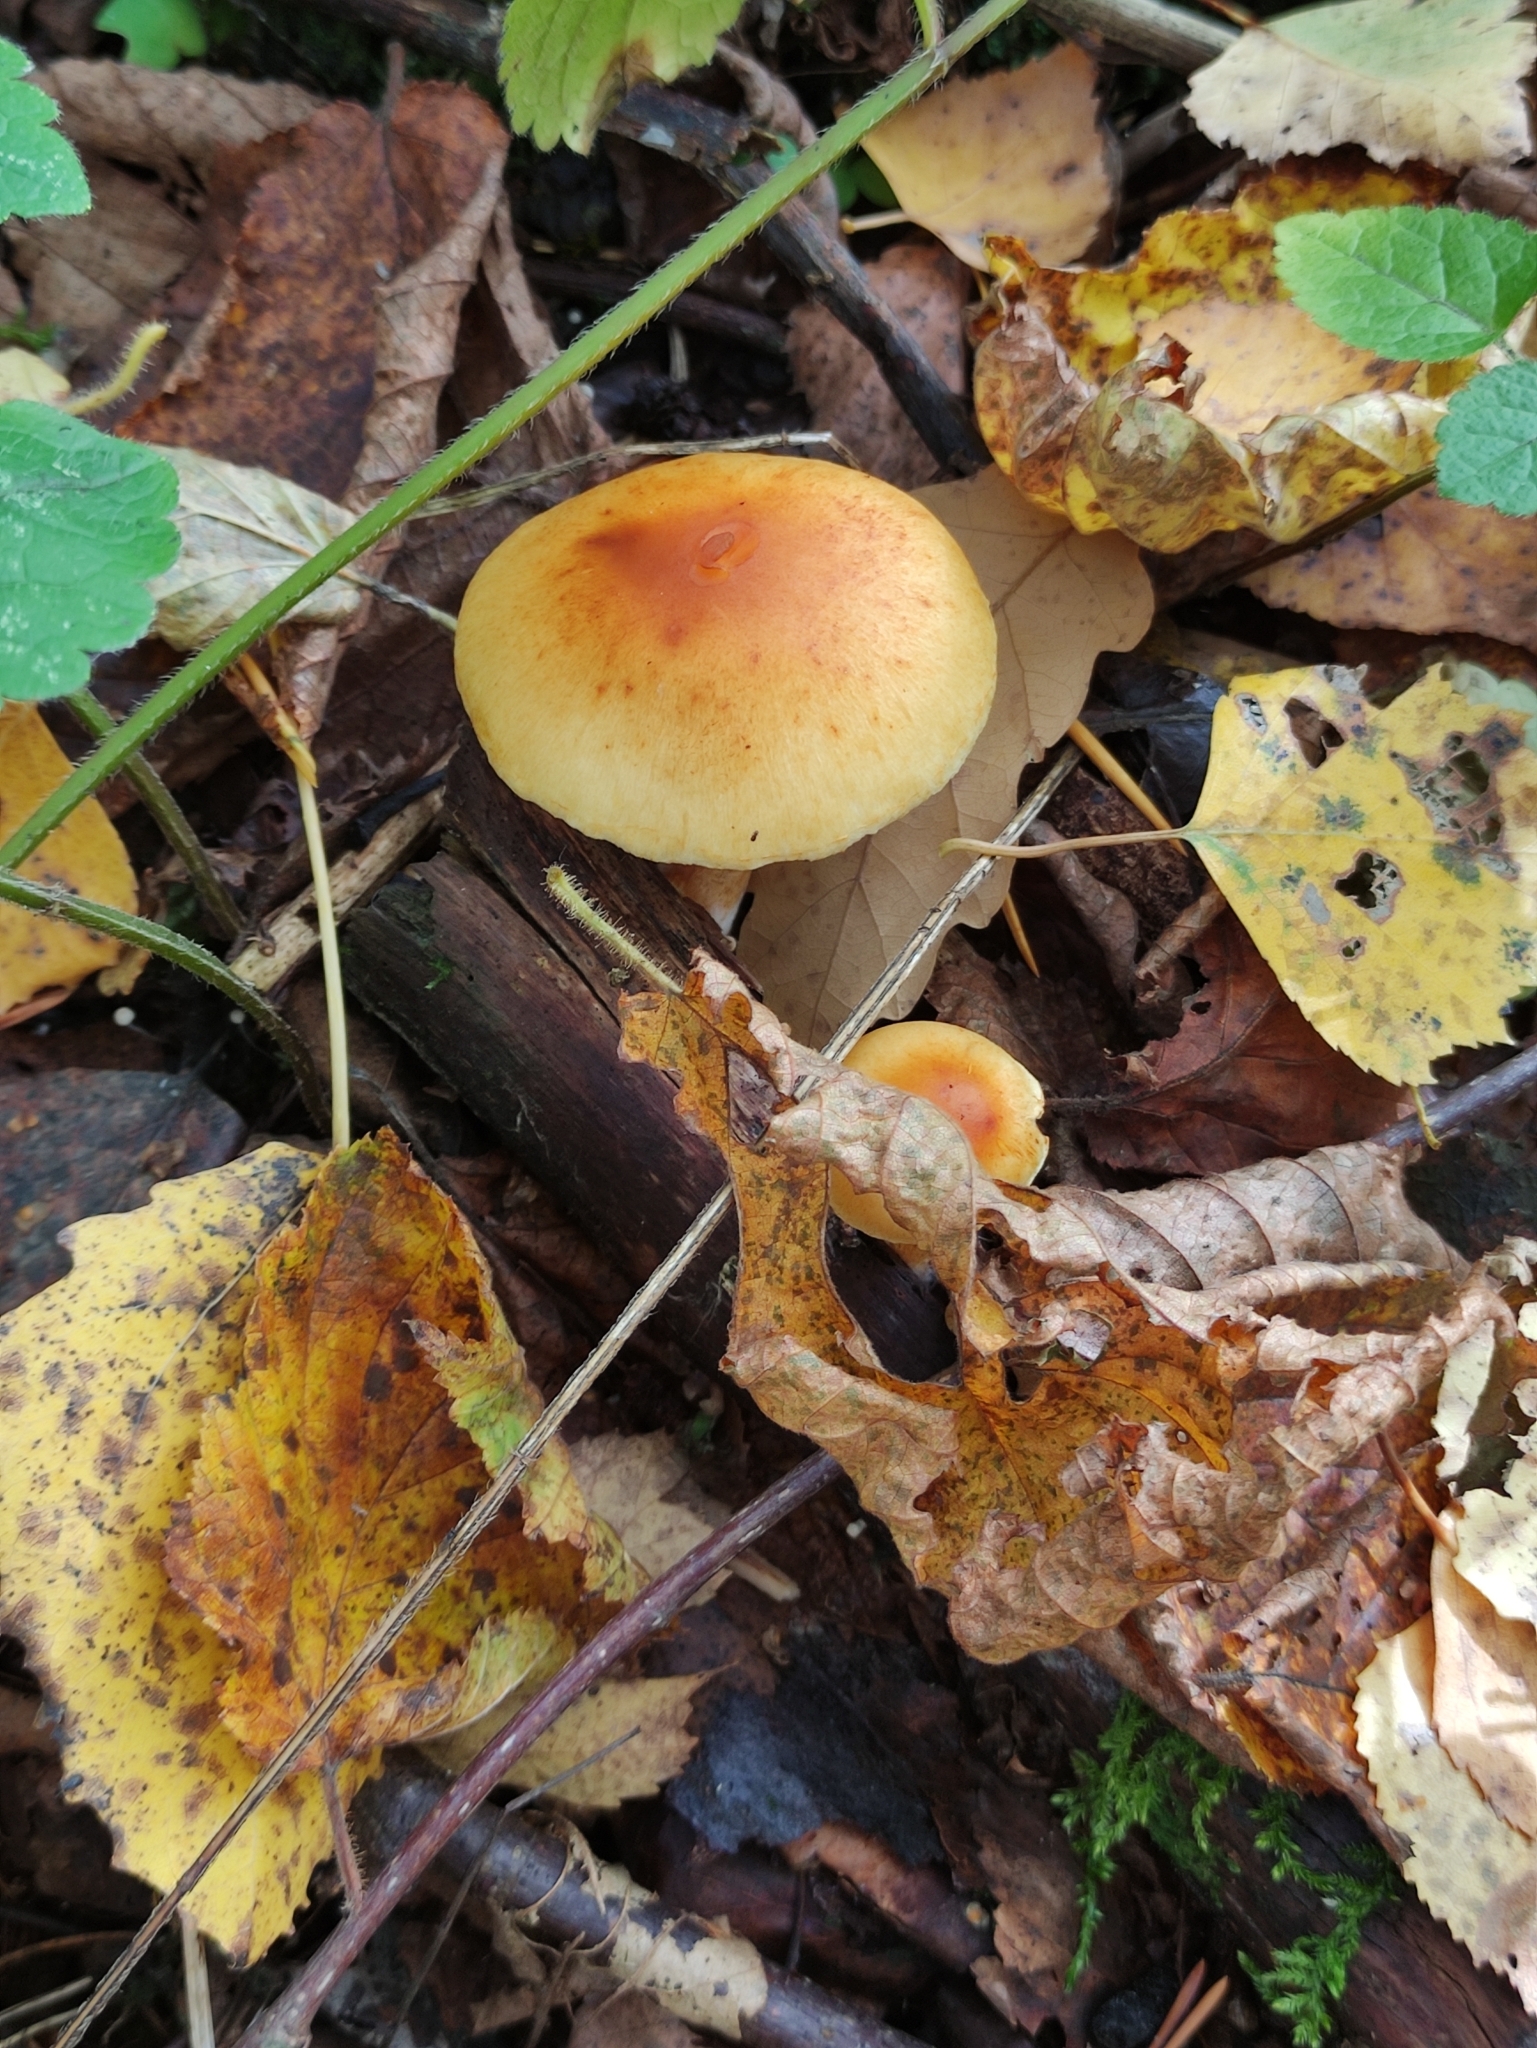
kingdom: Fungi
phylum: Basidiomycota
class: Agaricomycetes
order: Agaricales
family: Hymenogastraceae
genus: Gymnopilus
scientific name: Gymnopilus penetrans
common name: Common rustgill
